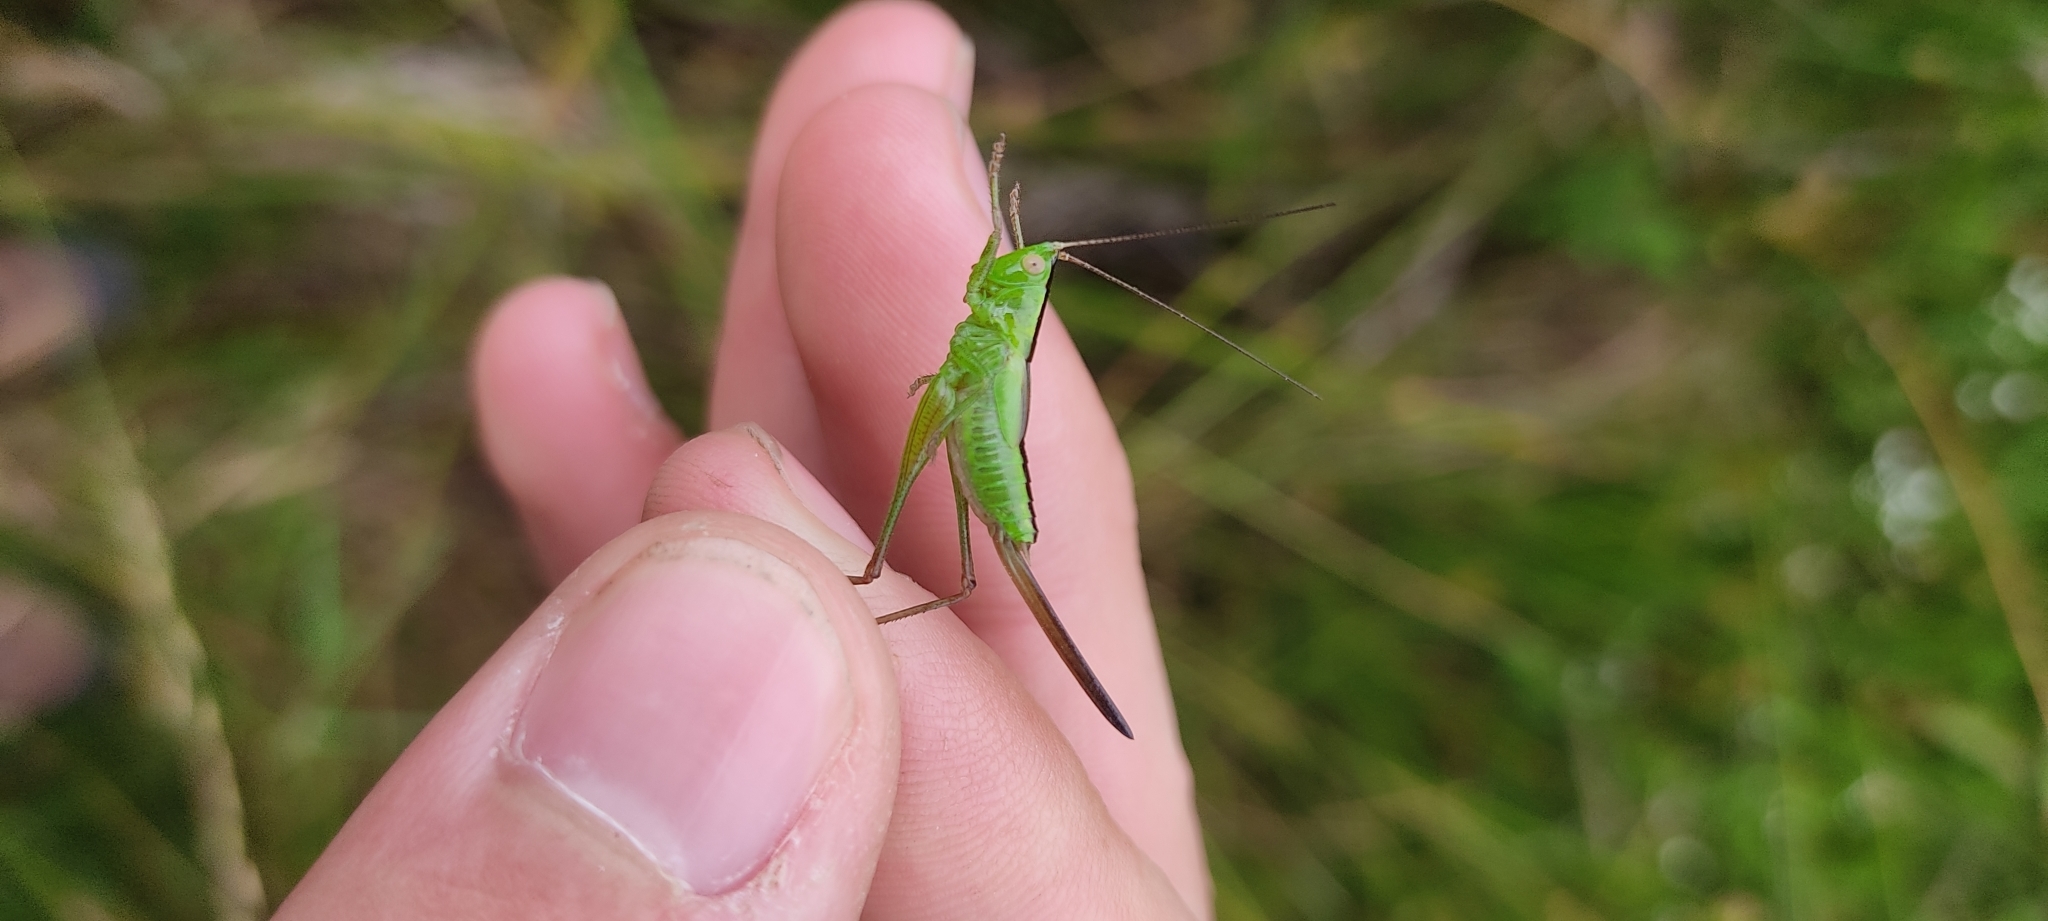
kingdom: Animalia
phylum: Arthropoda
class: Insecta
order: Orthoptera
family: Tettigoniidae
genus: Conocephalus
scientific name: Conocephalus fuscus
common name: Long-winged conehead
